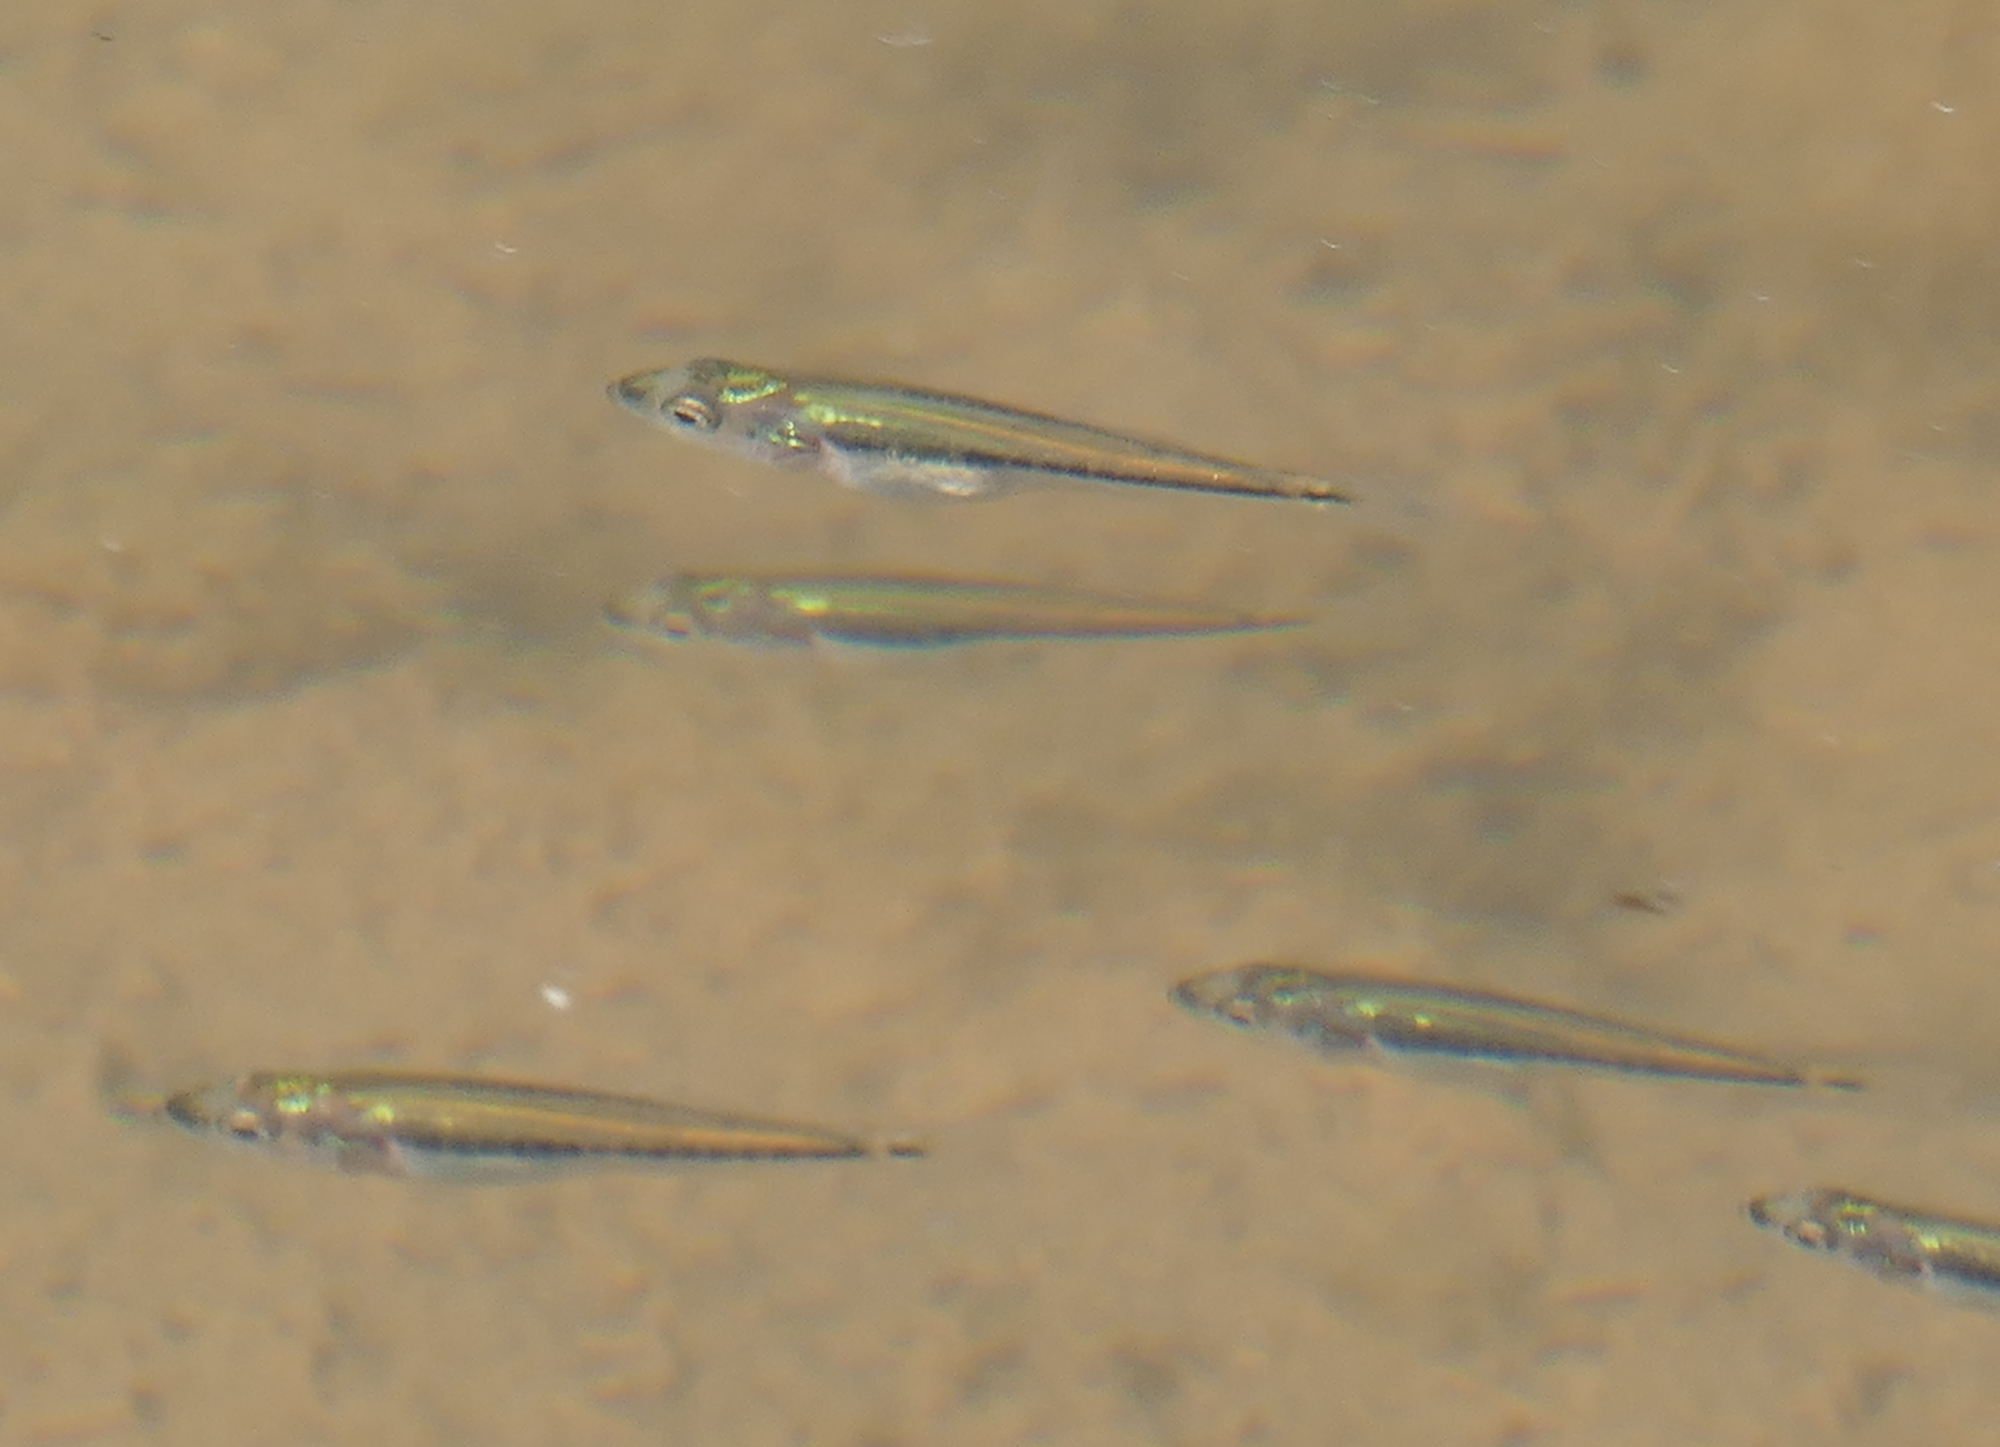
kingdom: Animalia
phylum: Chordata
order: Perciformes
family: Centrarchidae
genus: Micropterus
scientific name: Micropterus
